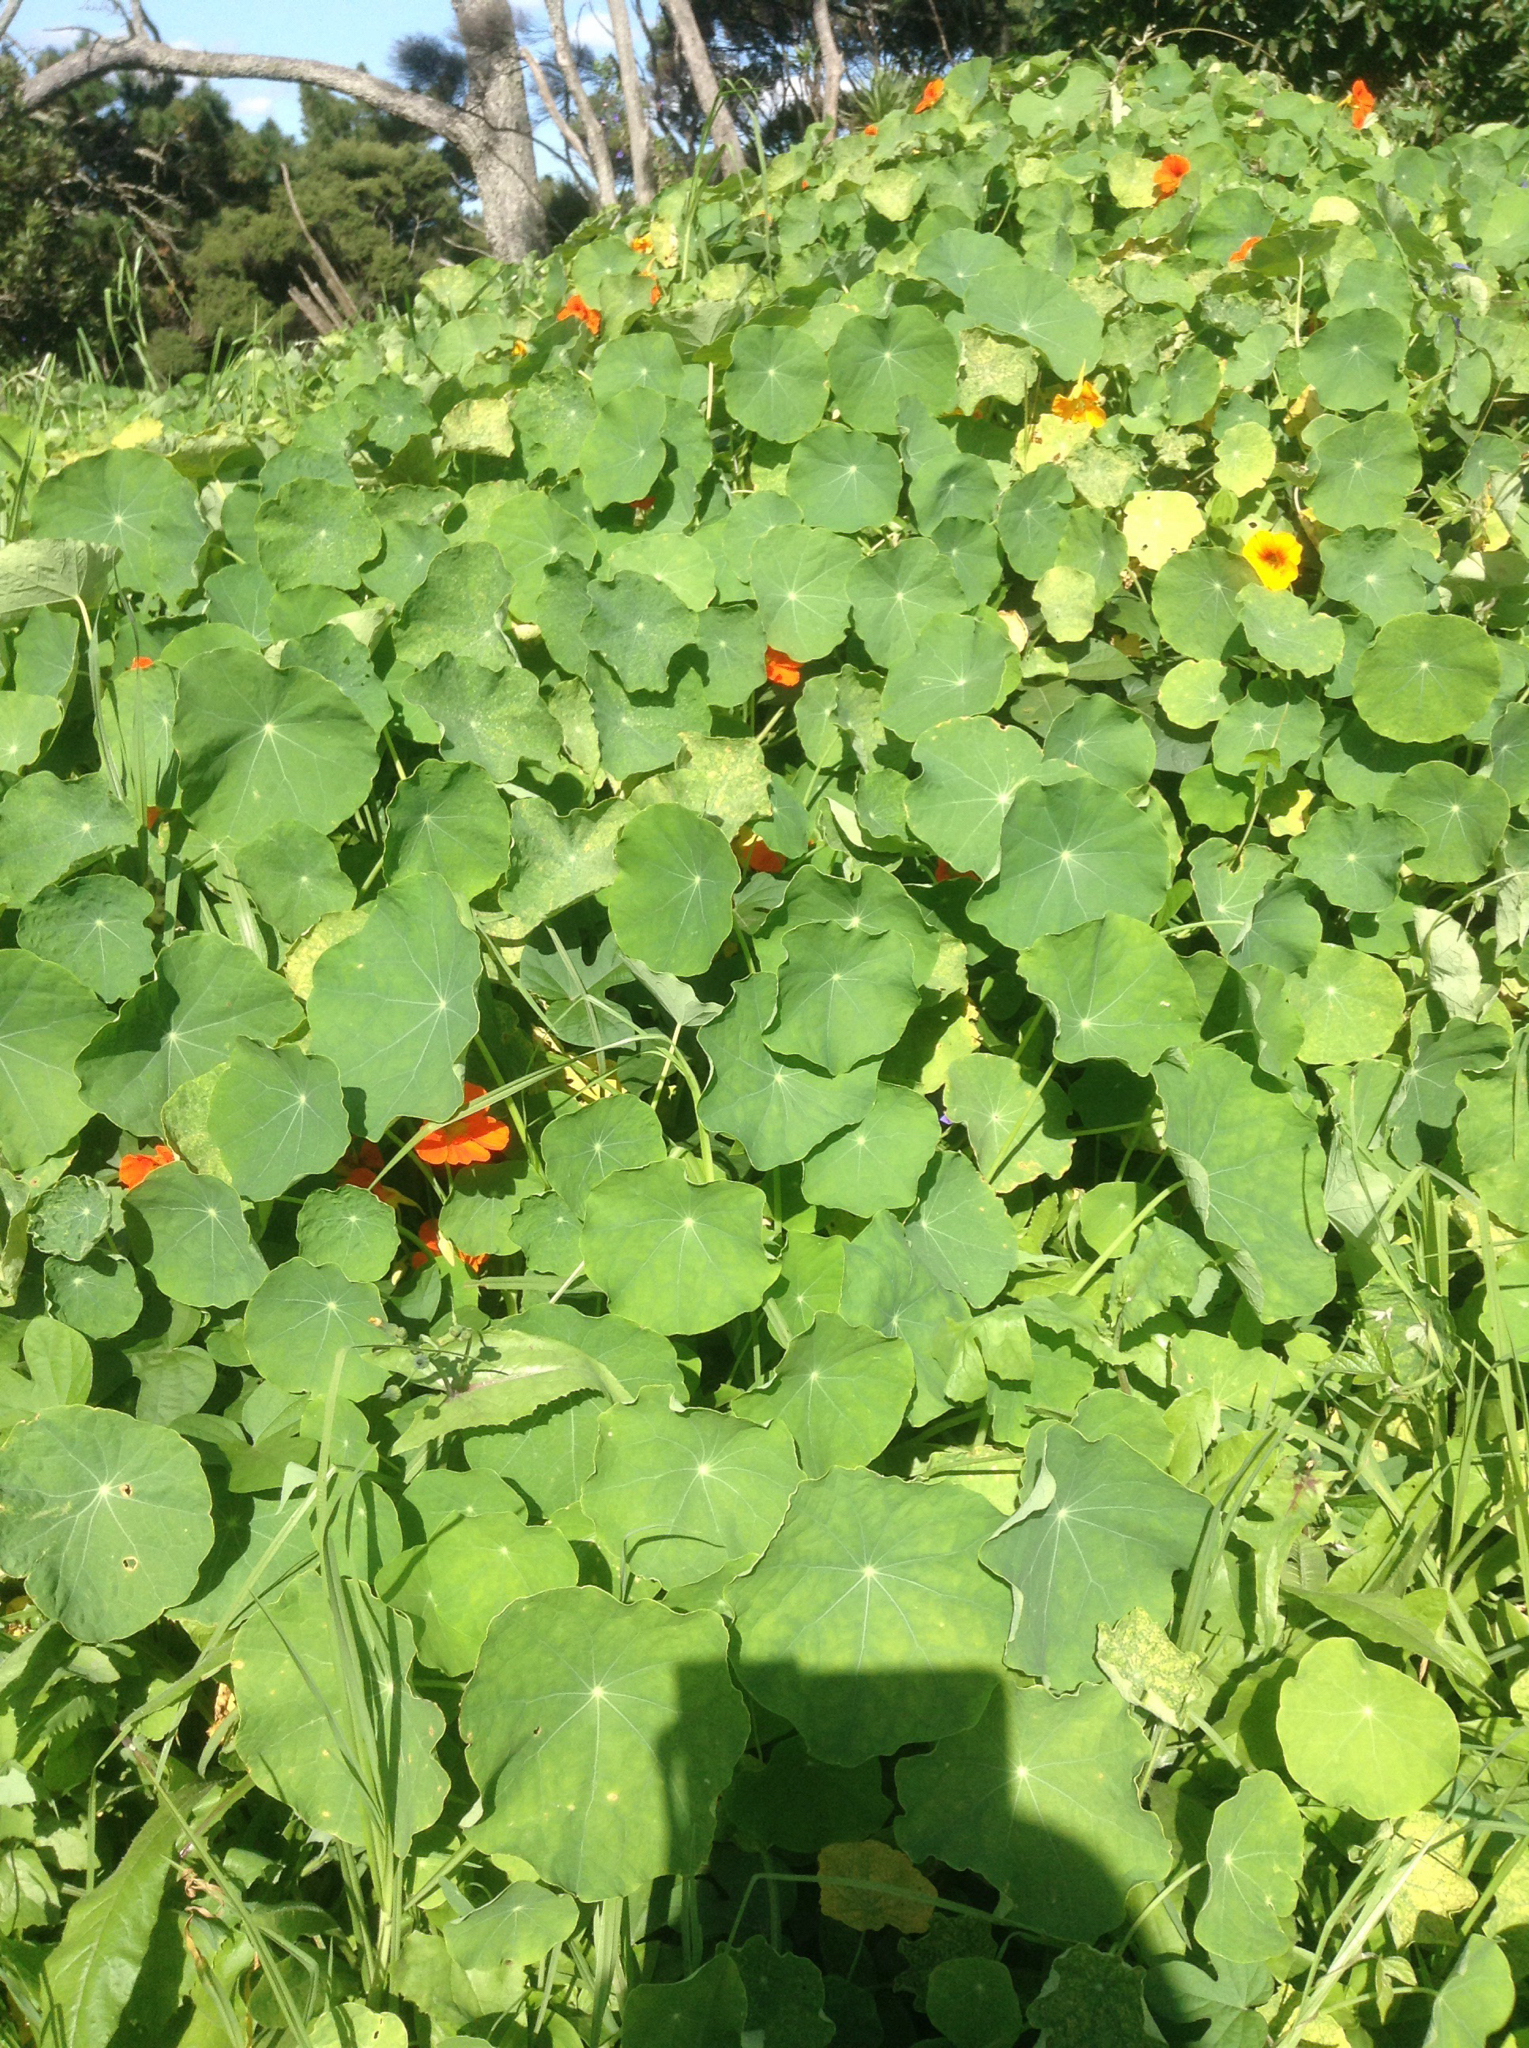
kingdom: Plantae
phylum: Tracheophyta
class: Magnoliopsida
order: Brassicales
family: Tropaeolaceae
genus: Tropaeolum
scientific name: Tropaeolum majus
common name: Nasturtium
